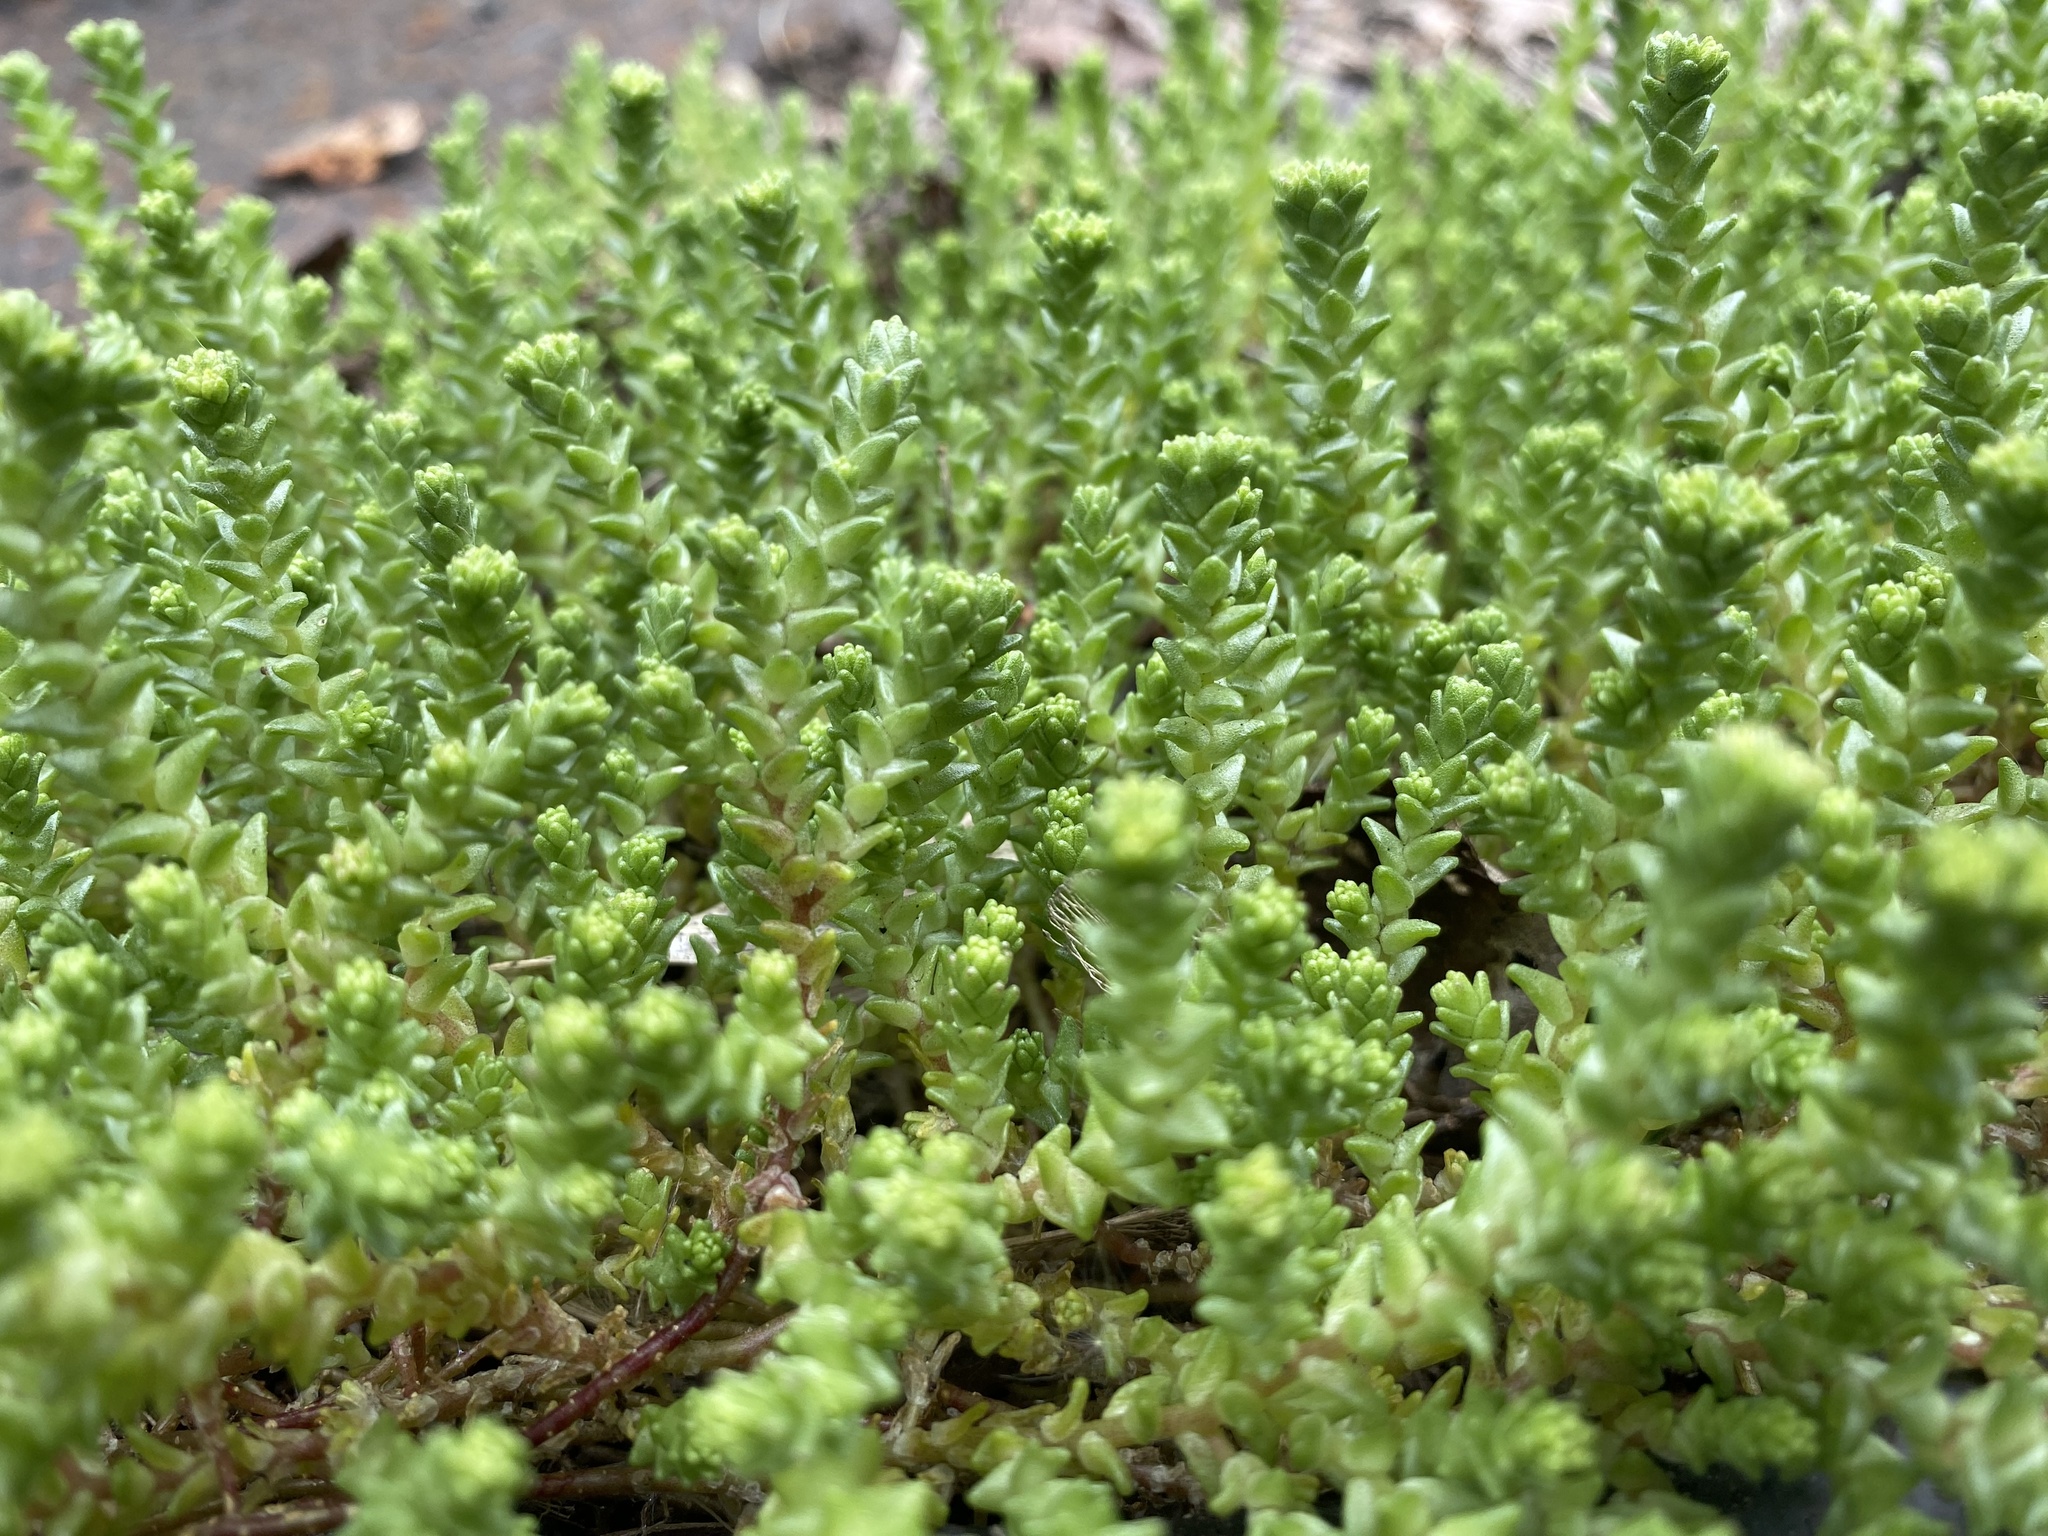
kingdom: Plantae
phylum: Tracheophyta
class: Magnoliopsida
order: Saxifragales
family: Crassulaceae
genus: Sedum
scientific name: Sedum acre
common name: Biting stonecrop
